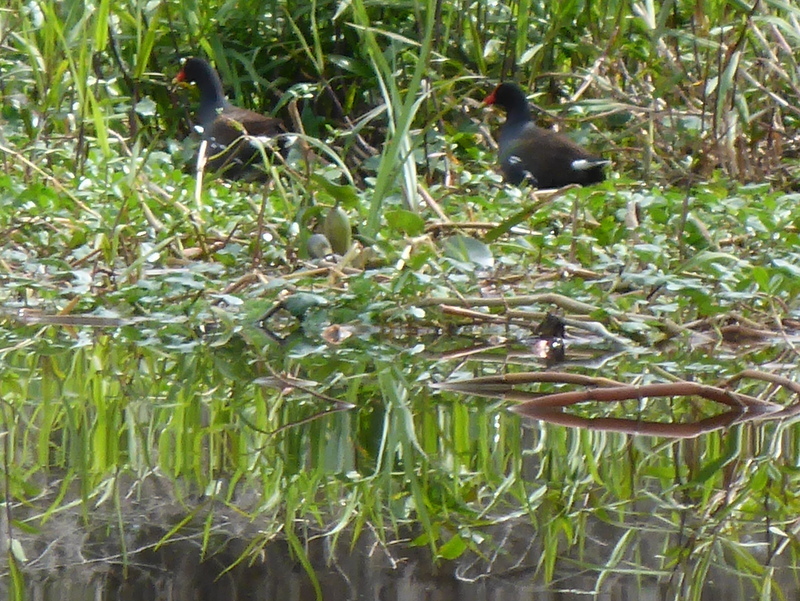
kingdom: Animalia
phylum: Chordata
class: Aves
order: Gruiformes
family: Rallidae
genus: Gallinula
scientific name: Gallinula chloropus
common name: Common moorhen
